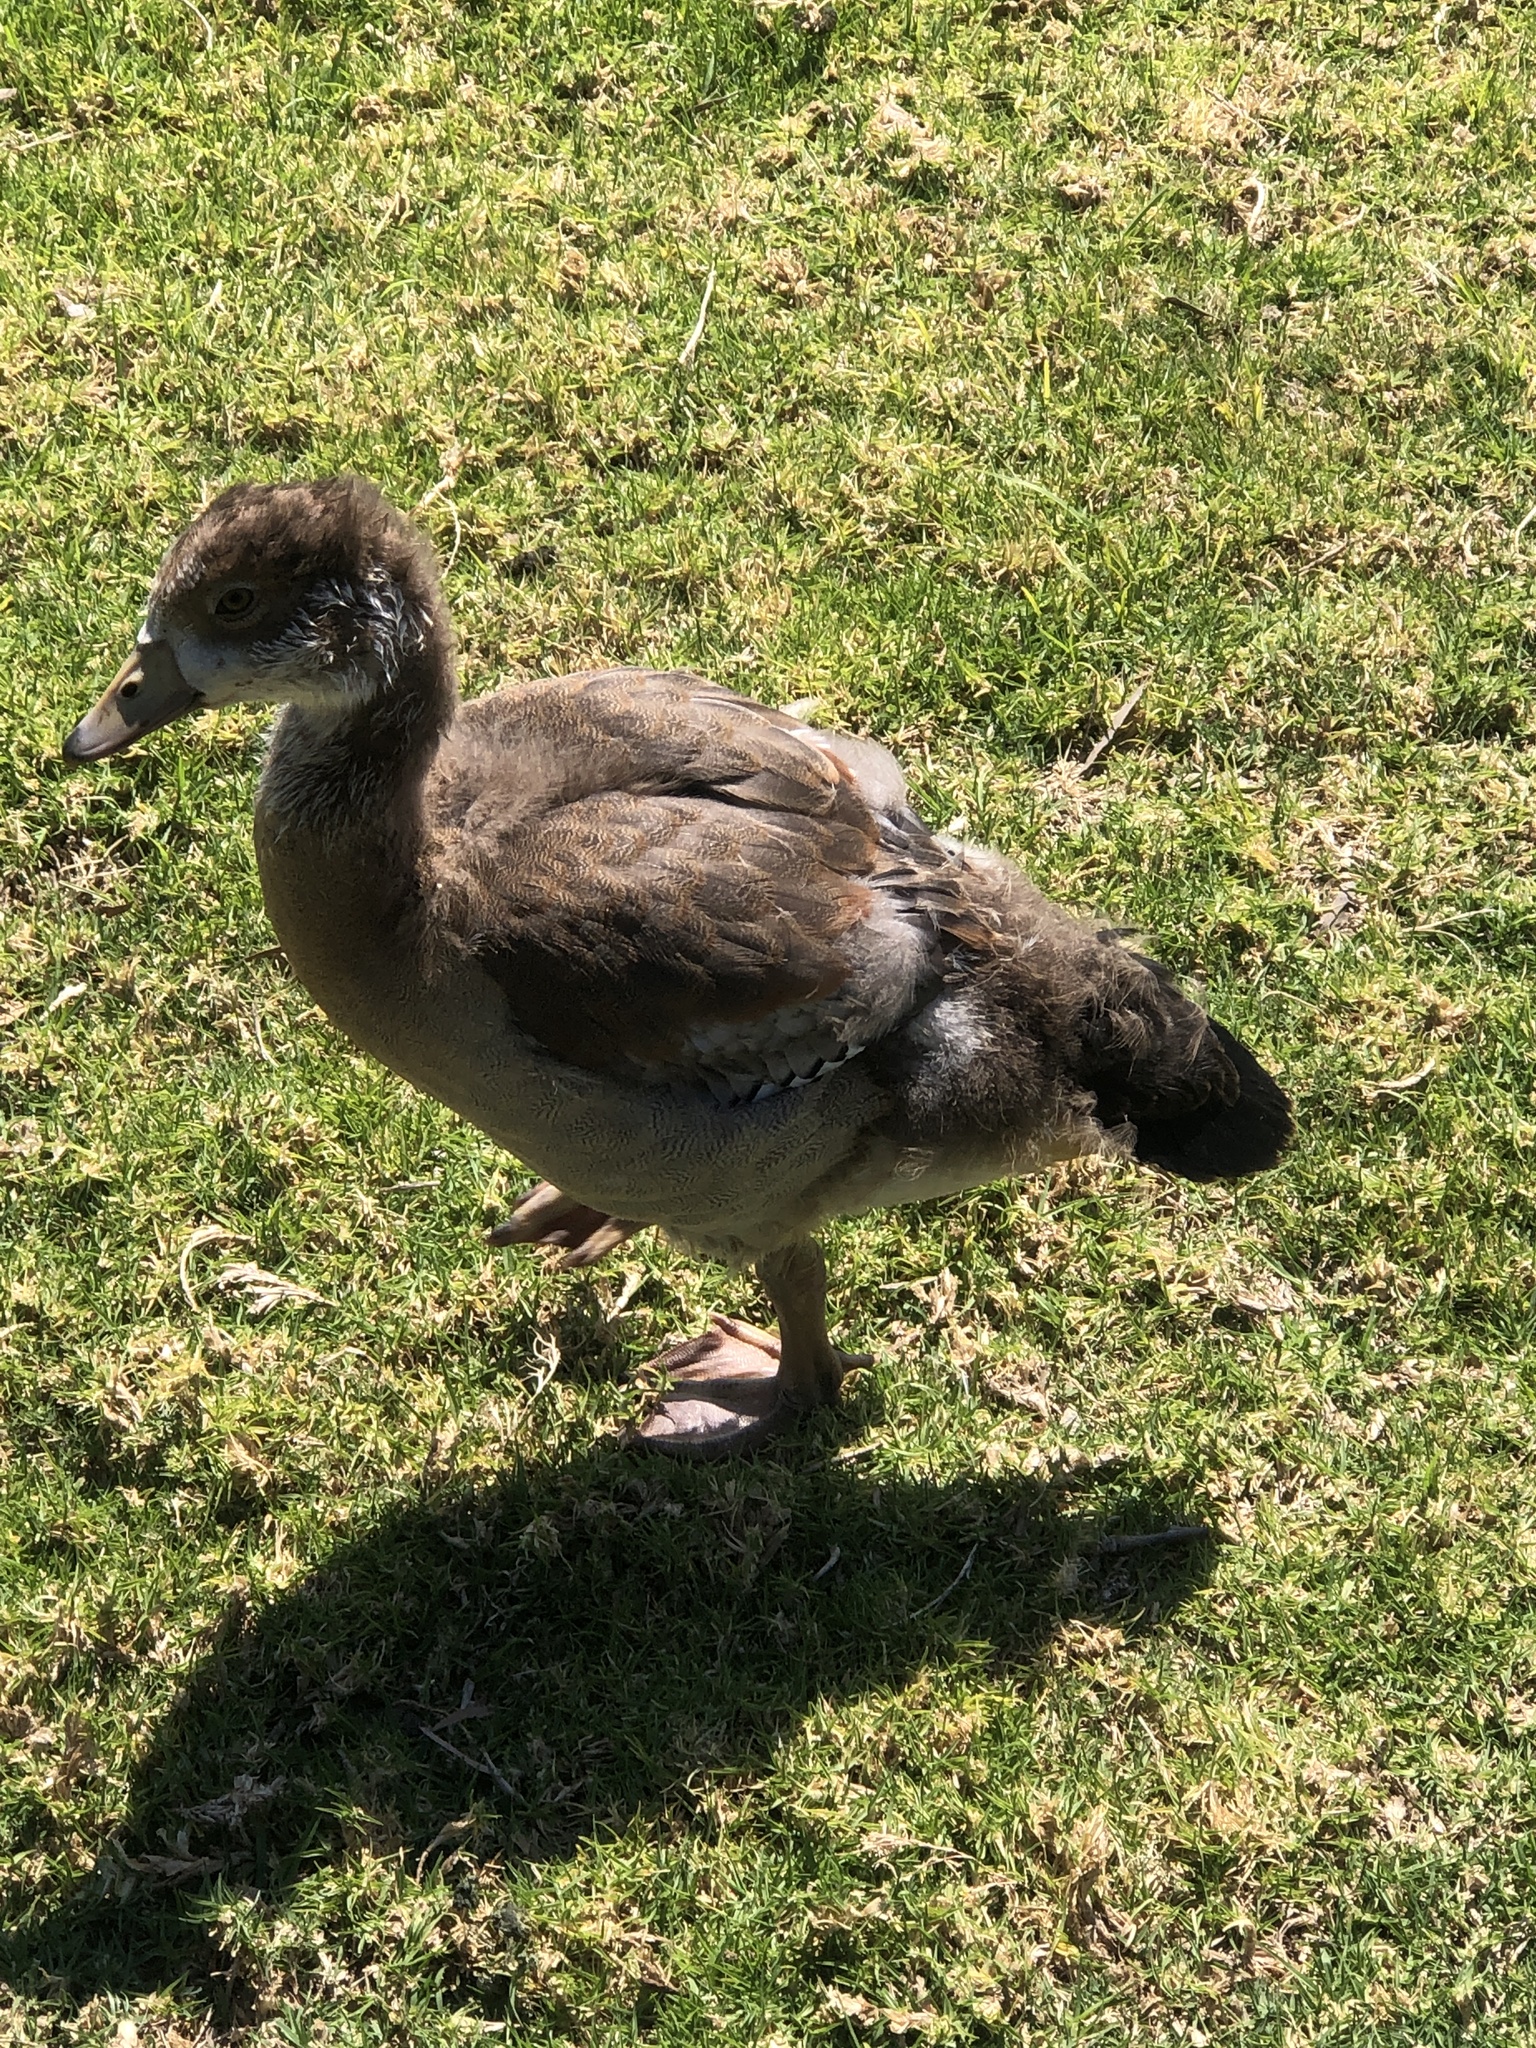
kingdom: Animalia
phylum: Chordata
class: Aves
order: Anseriformes
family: Anatidae
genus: Alopochen
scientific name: Alopochen aegyptiaca
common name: Egyptian goose
